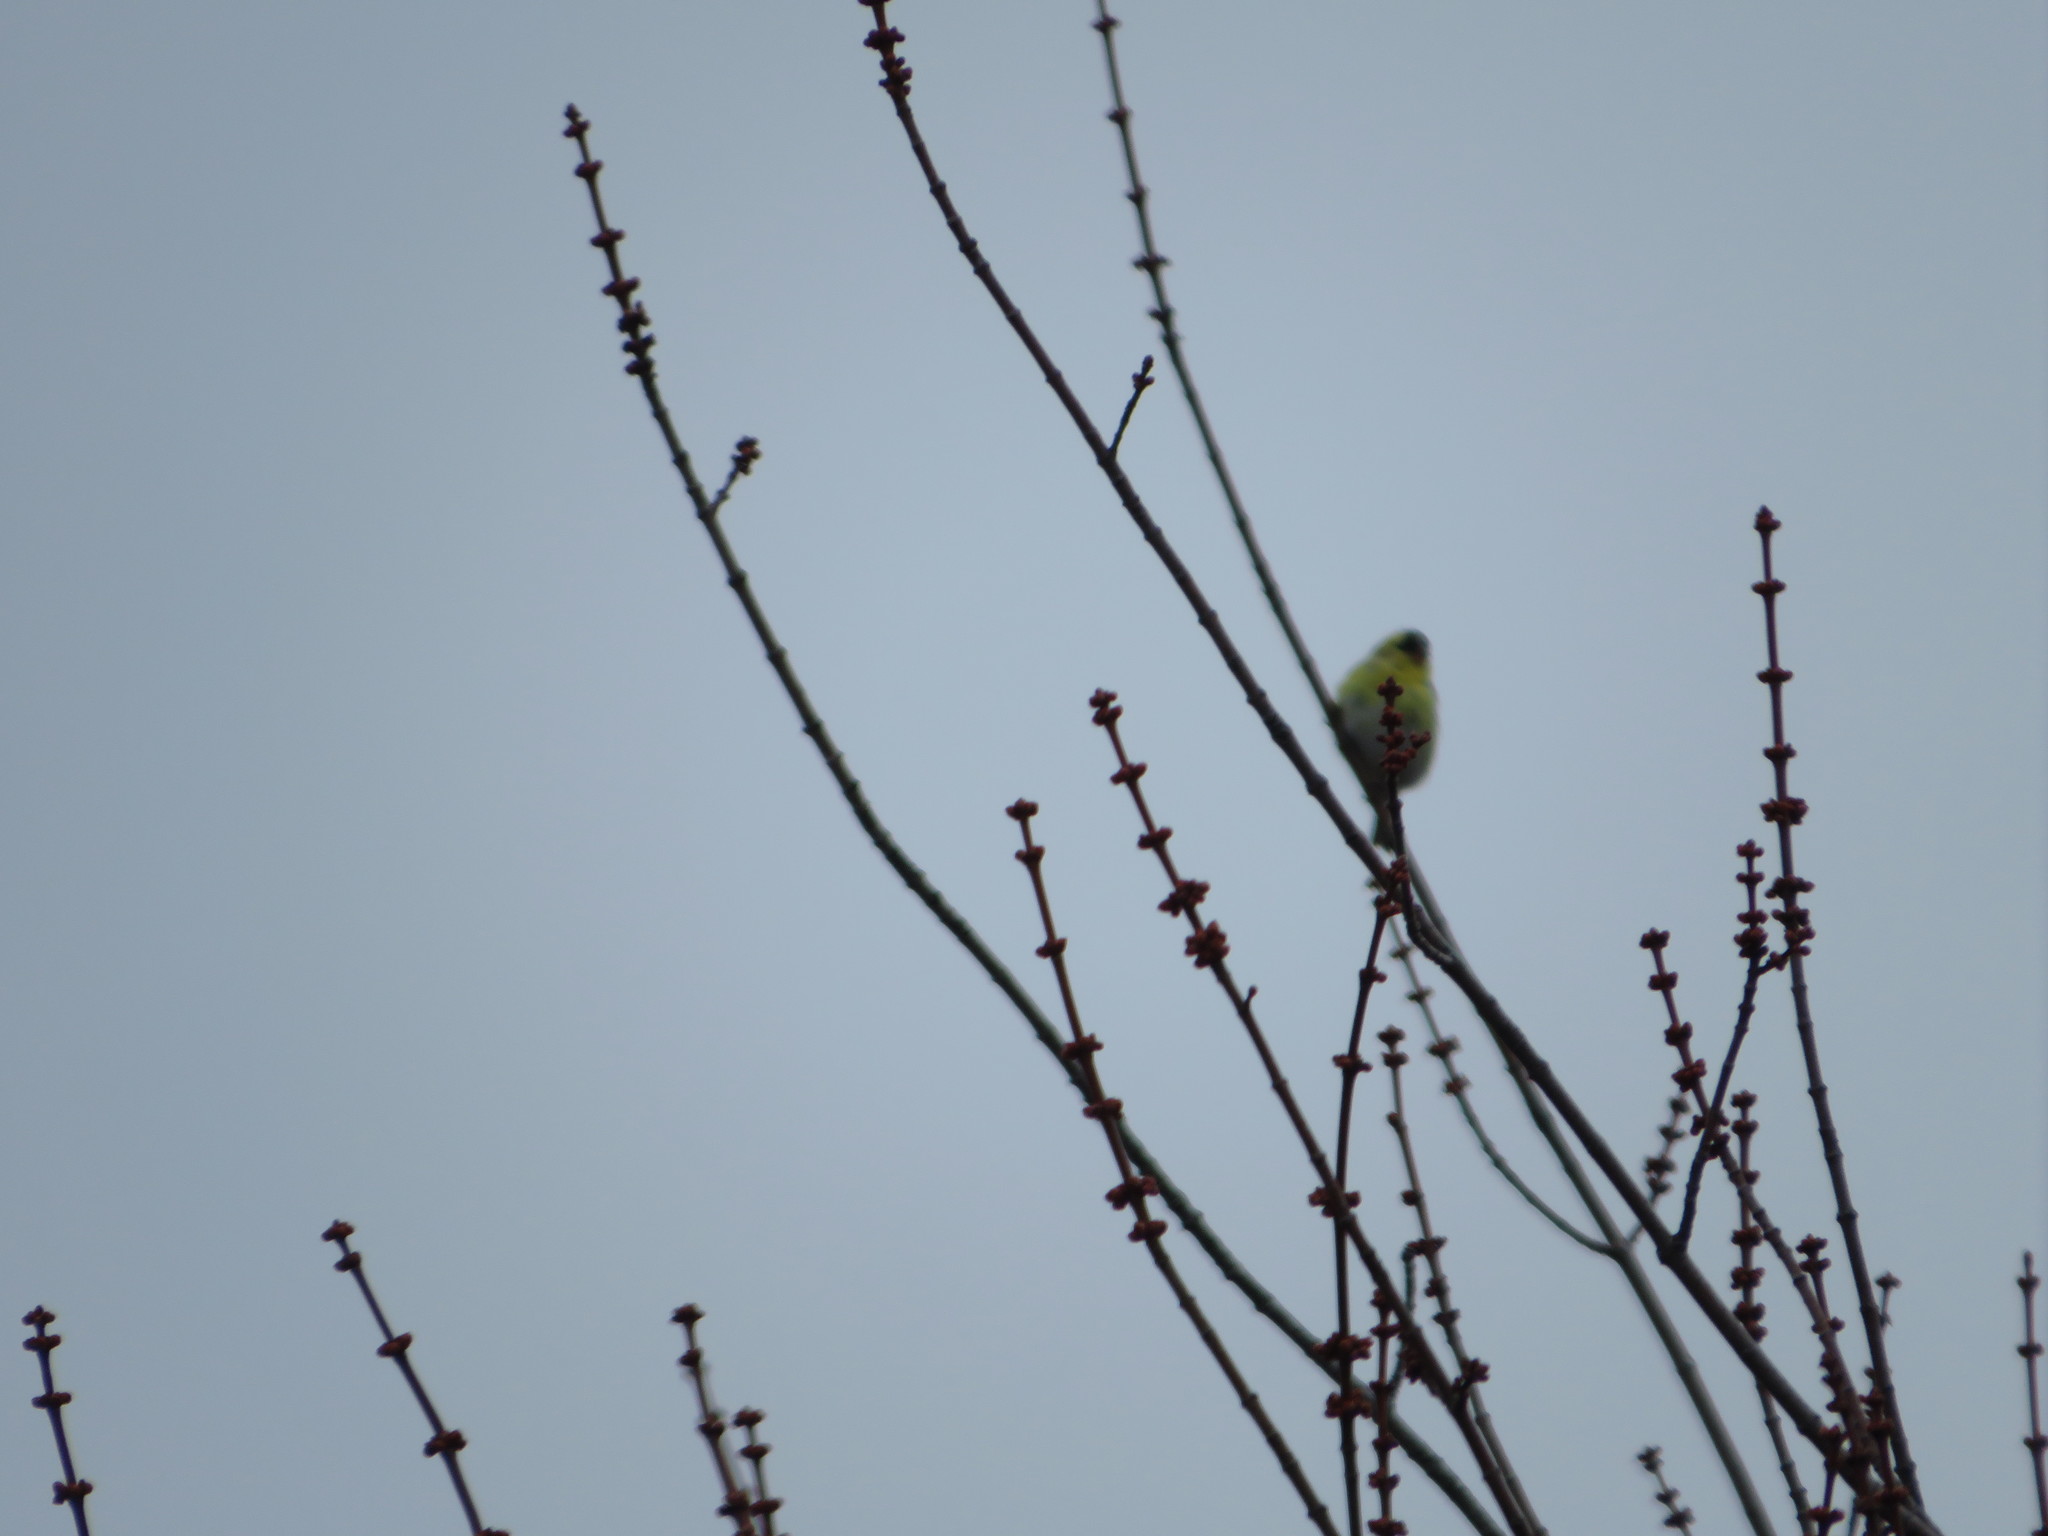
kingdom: Animalia
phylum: Chordata
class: Aves
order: Passeriformes
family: Fringillidae
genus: Spinus
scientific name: Spinus tristis
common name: American goldfinch
